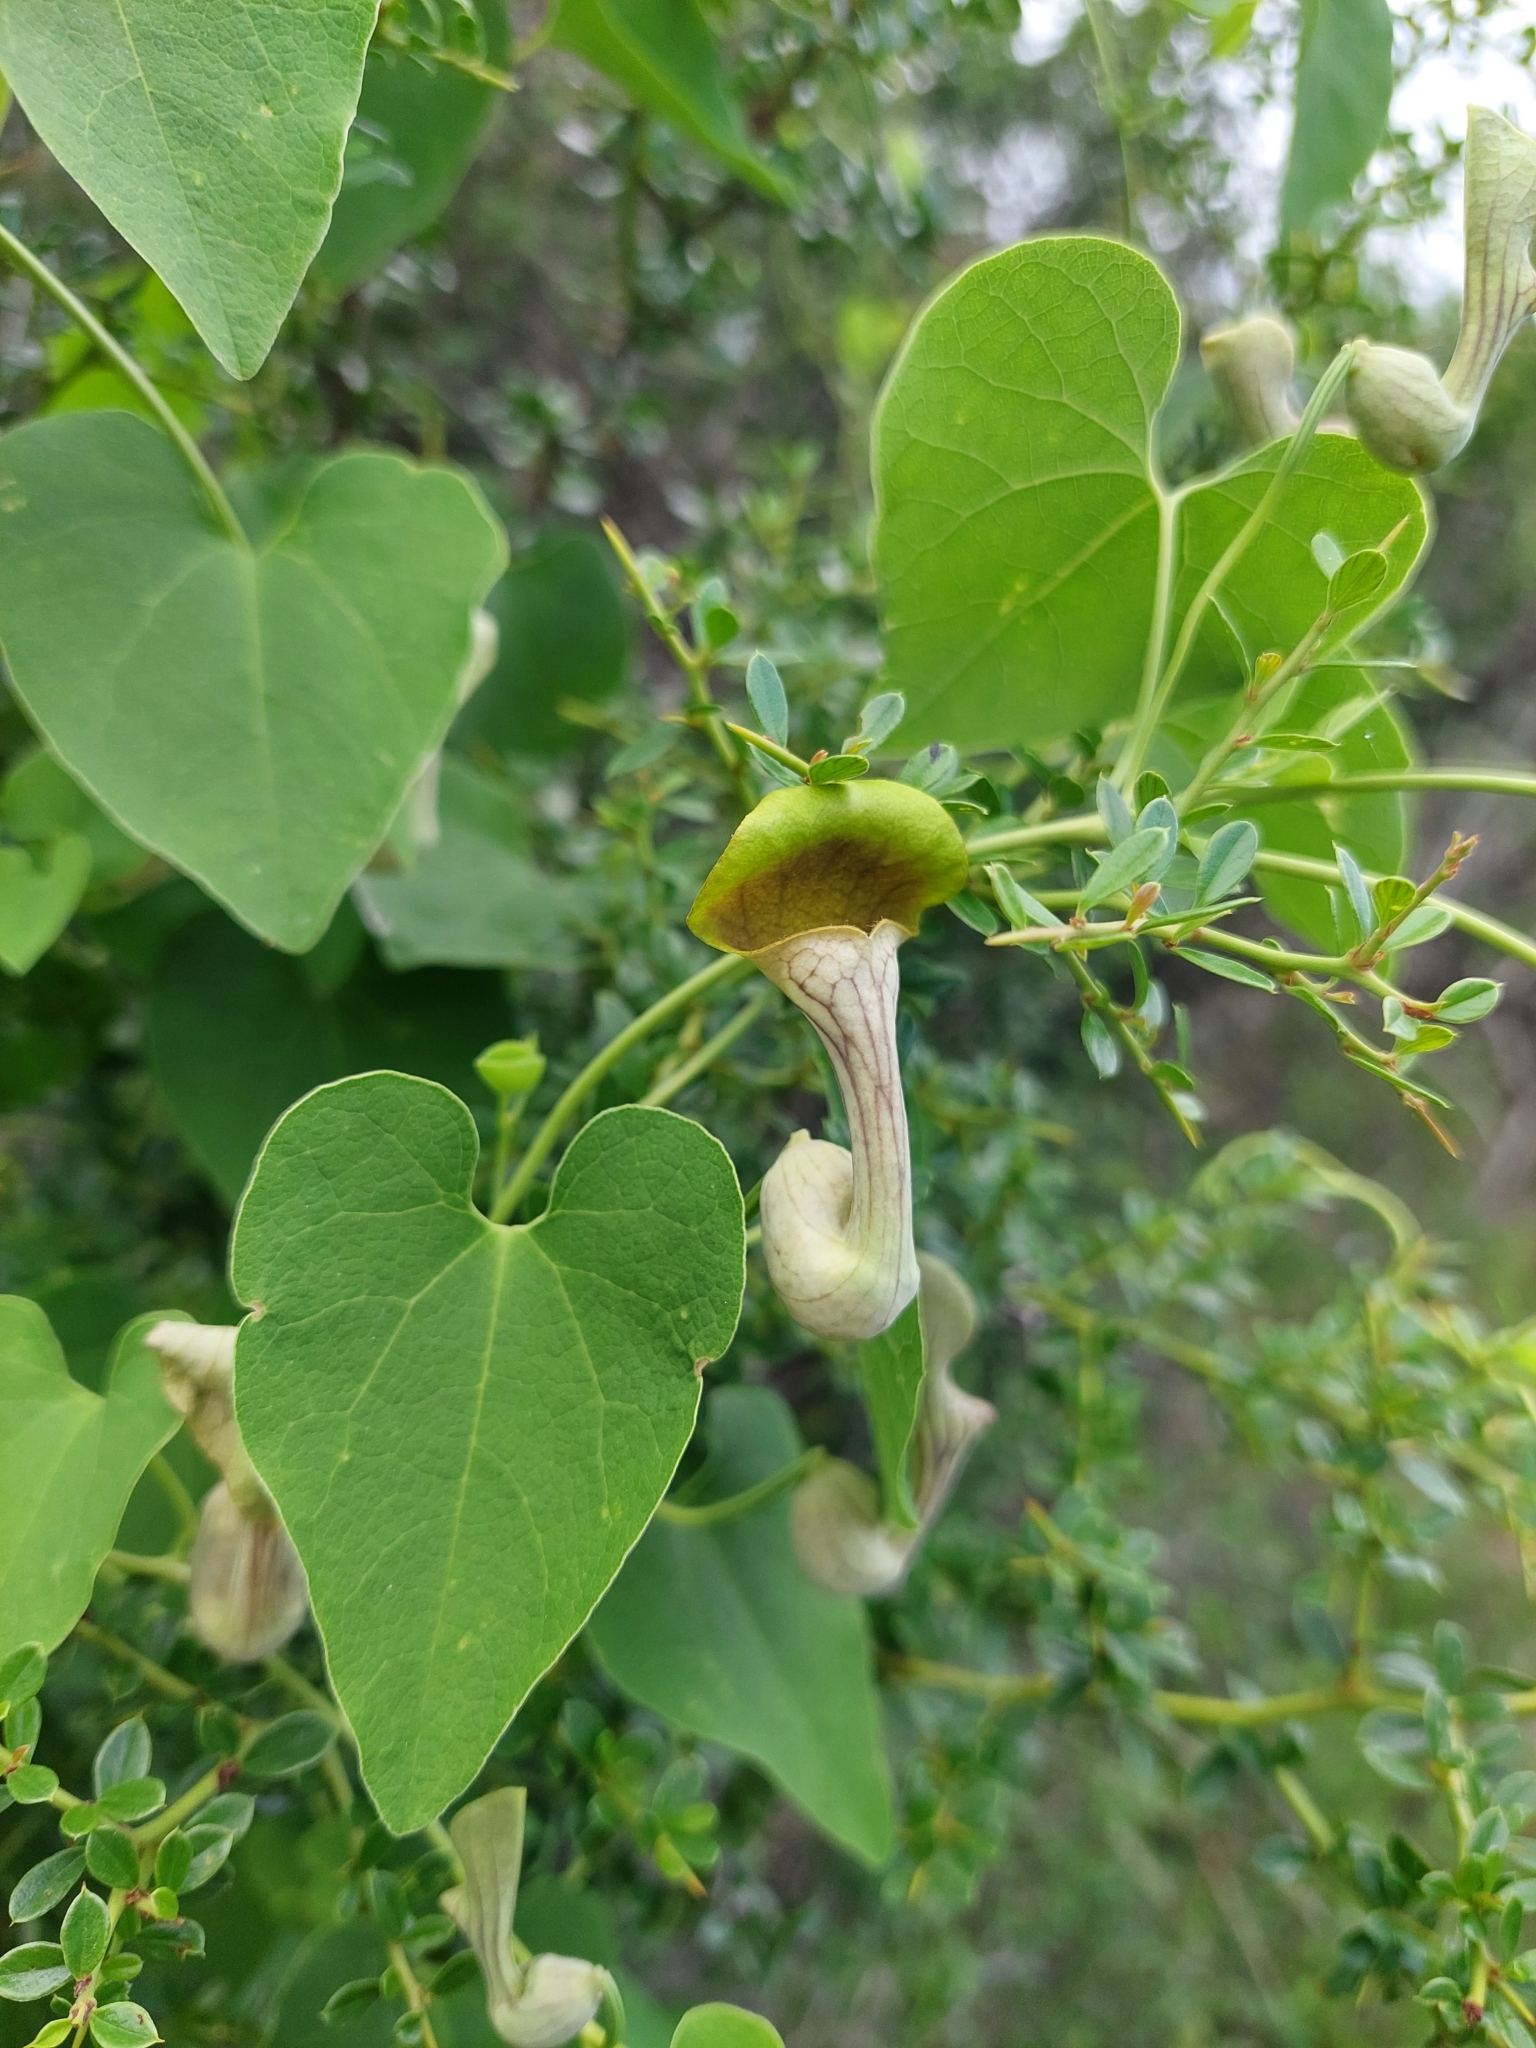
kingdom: Plantae
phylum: Tracheophyta
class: Magnoliopsida
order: Piperales
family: Aristolochiaceae
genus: Aristolochia
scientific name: Aristolochia argentina
